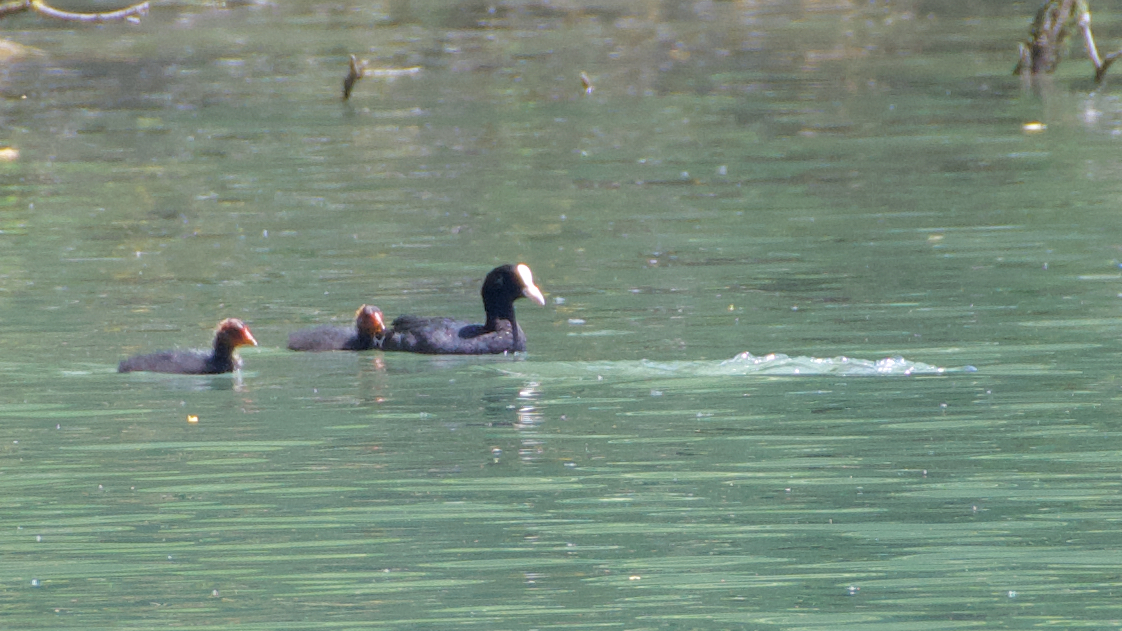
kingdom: Animalia
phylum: Chordata
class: Aves
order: Gruiformes
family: Rallidae
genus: Fulica
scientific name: Fulica atra
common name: Eurasian coot
